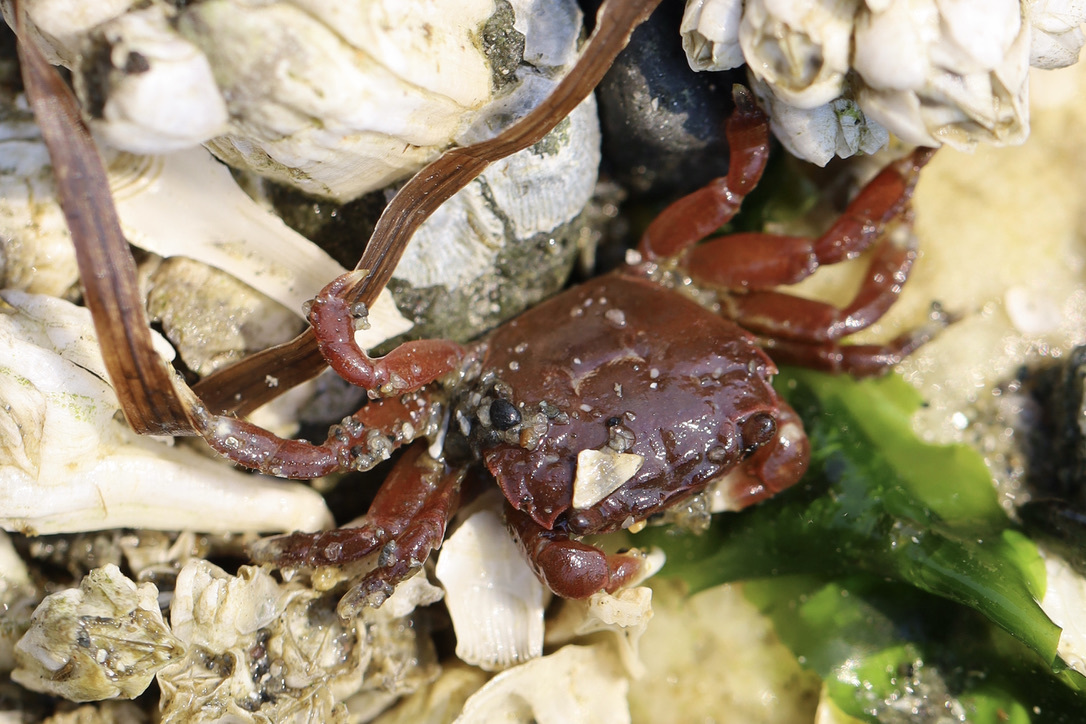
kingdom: Animalia
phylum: Arthropoda
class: Malacostraca
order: Decapoda
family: Varunidae
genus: Hemigrapsus
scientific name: Hemigrapsus oregonensis
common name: Yellow shore crab
